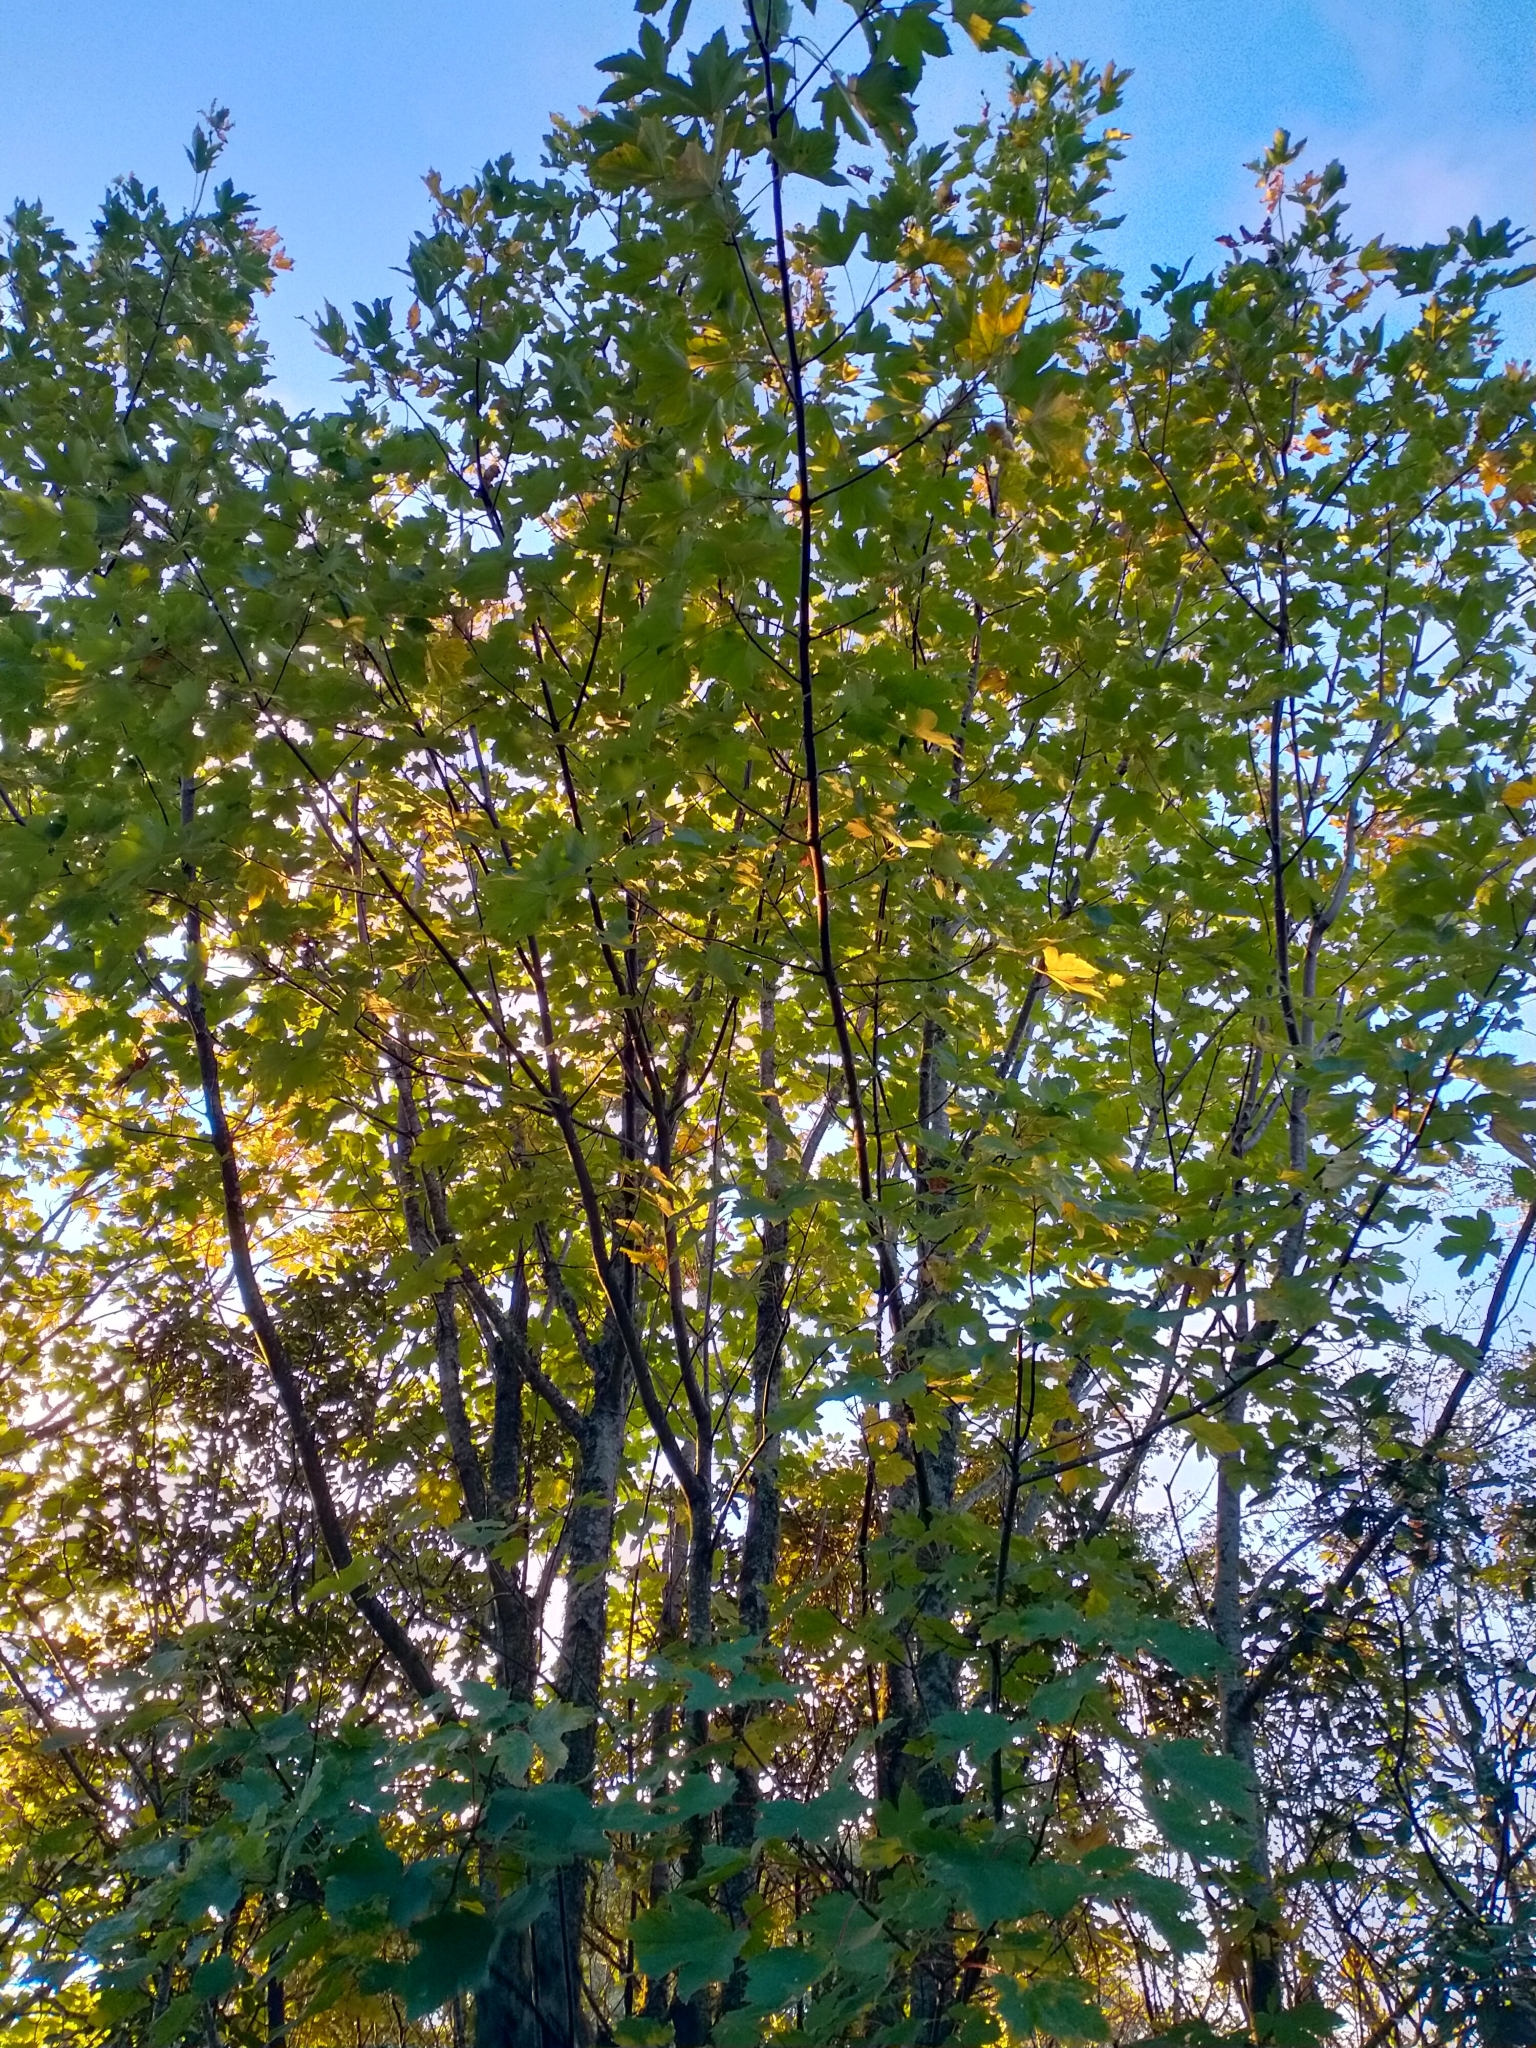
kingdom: Plantae
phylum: Tracheophyta
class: Magnoliopsida
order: Sapindales
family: Sapindaceae
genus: Acer
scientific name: Acer pseudoplatanus
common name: Sycamore
